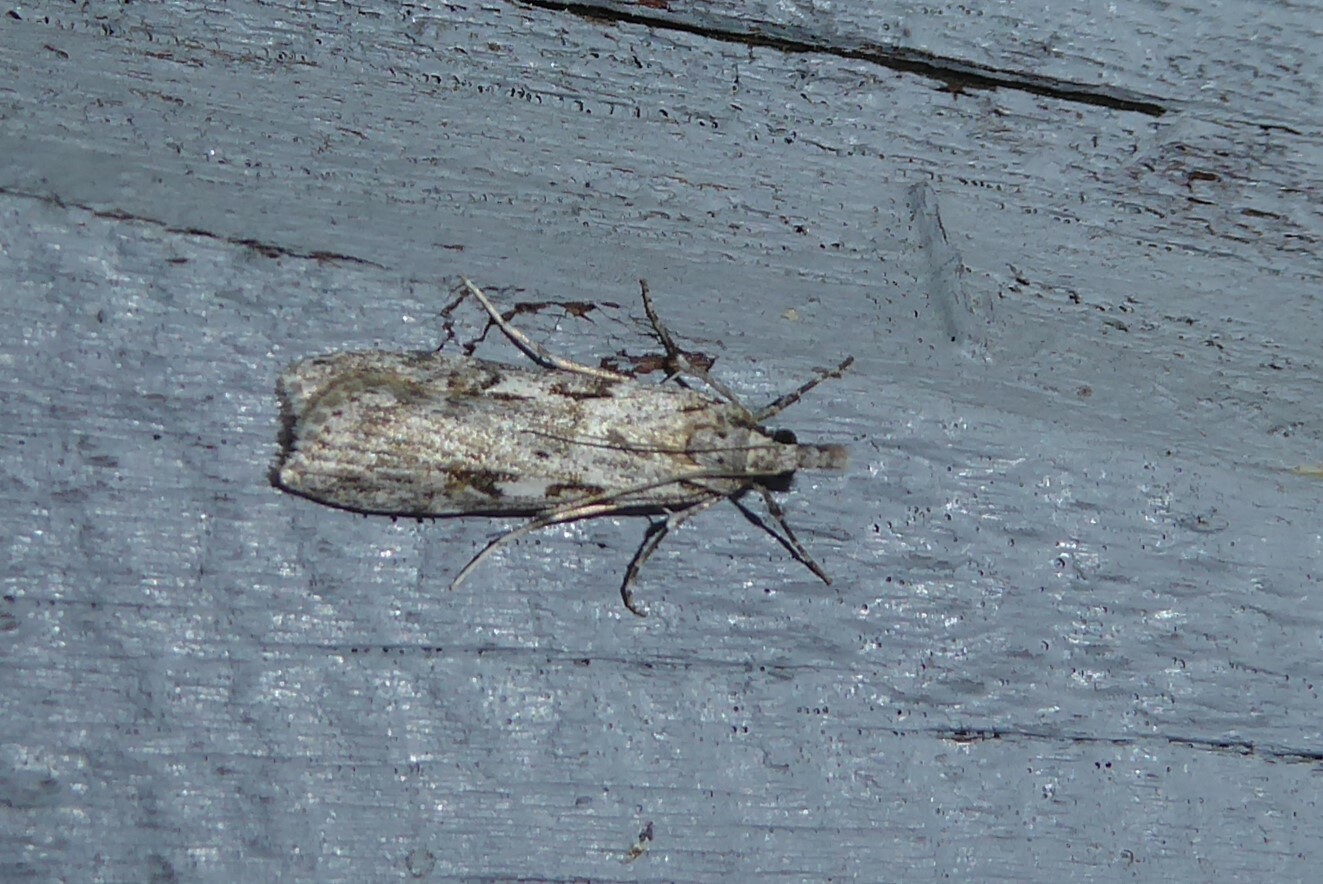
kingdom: Animalia
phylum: Arthropoda
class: Insecta
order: Lepidoptera
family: Crambidae
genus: Scoparia
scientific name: Scoparia halopis
